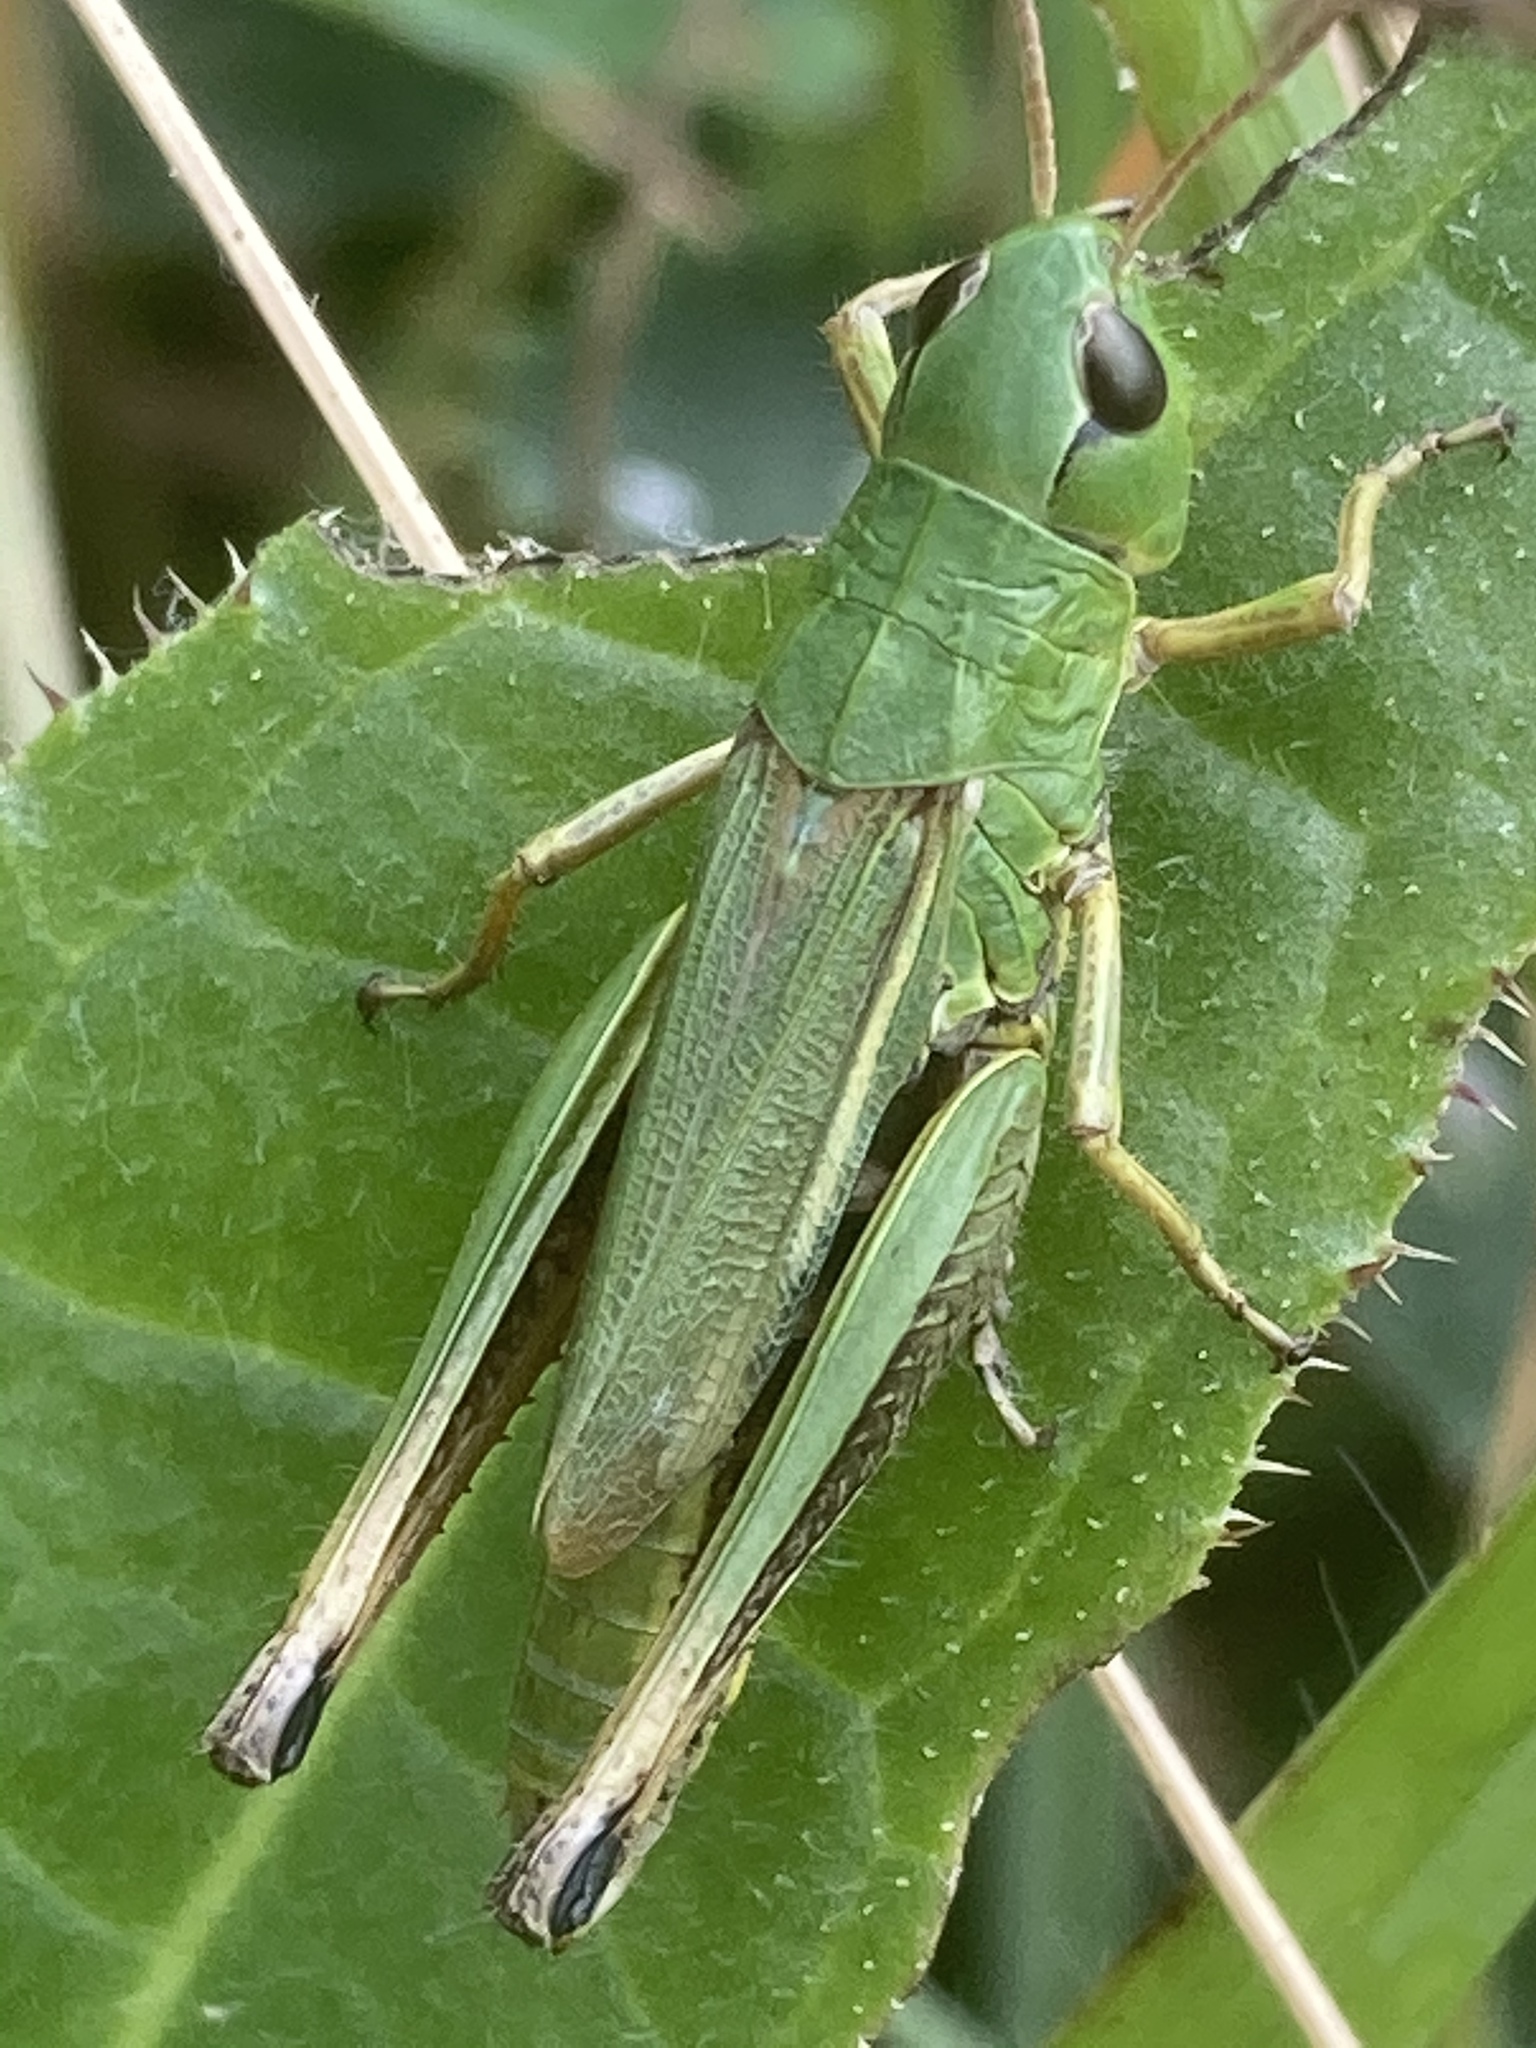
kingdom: Animalia
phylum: Arthropoda
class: Insecta
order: Orthoptera
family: Acrididae
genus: Pseudochorthippus
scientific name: Pseudochorthippus montanus
